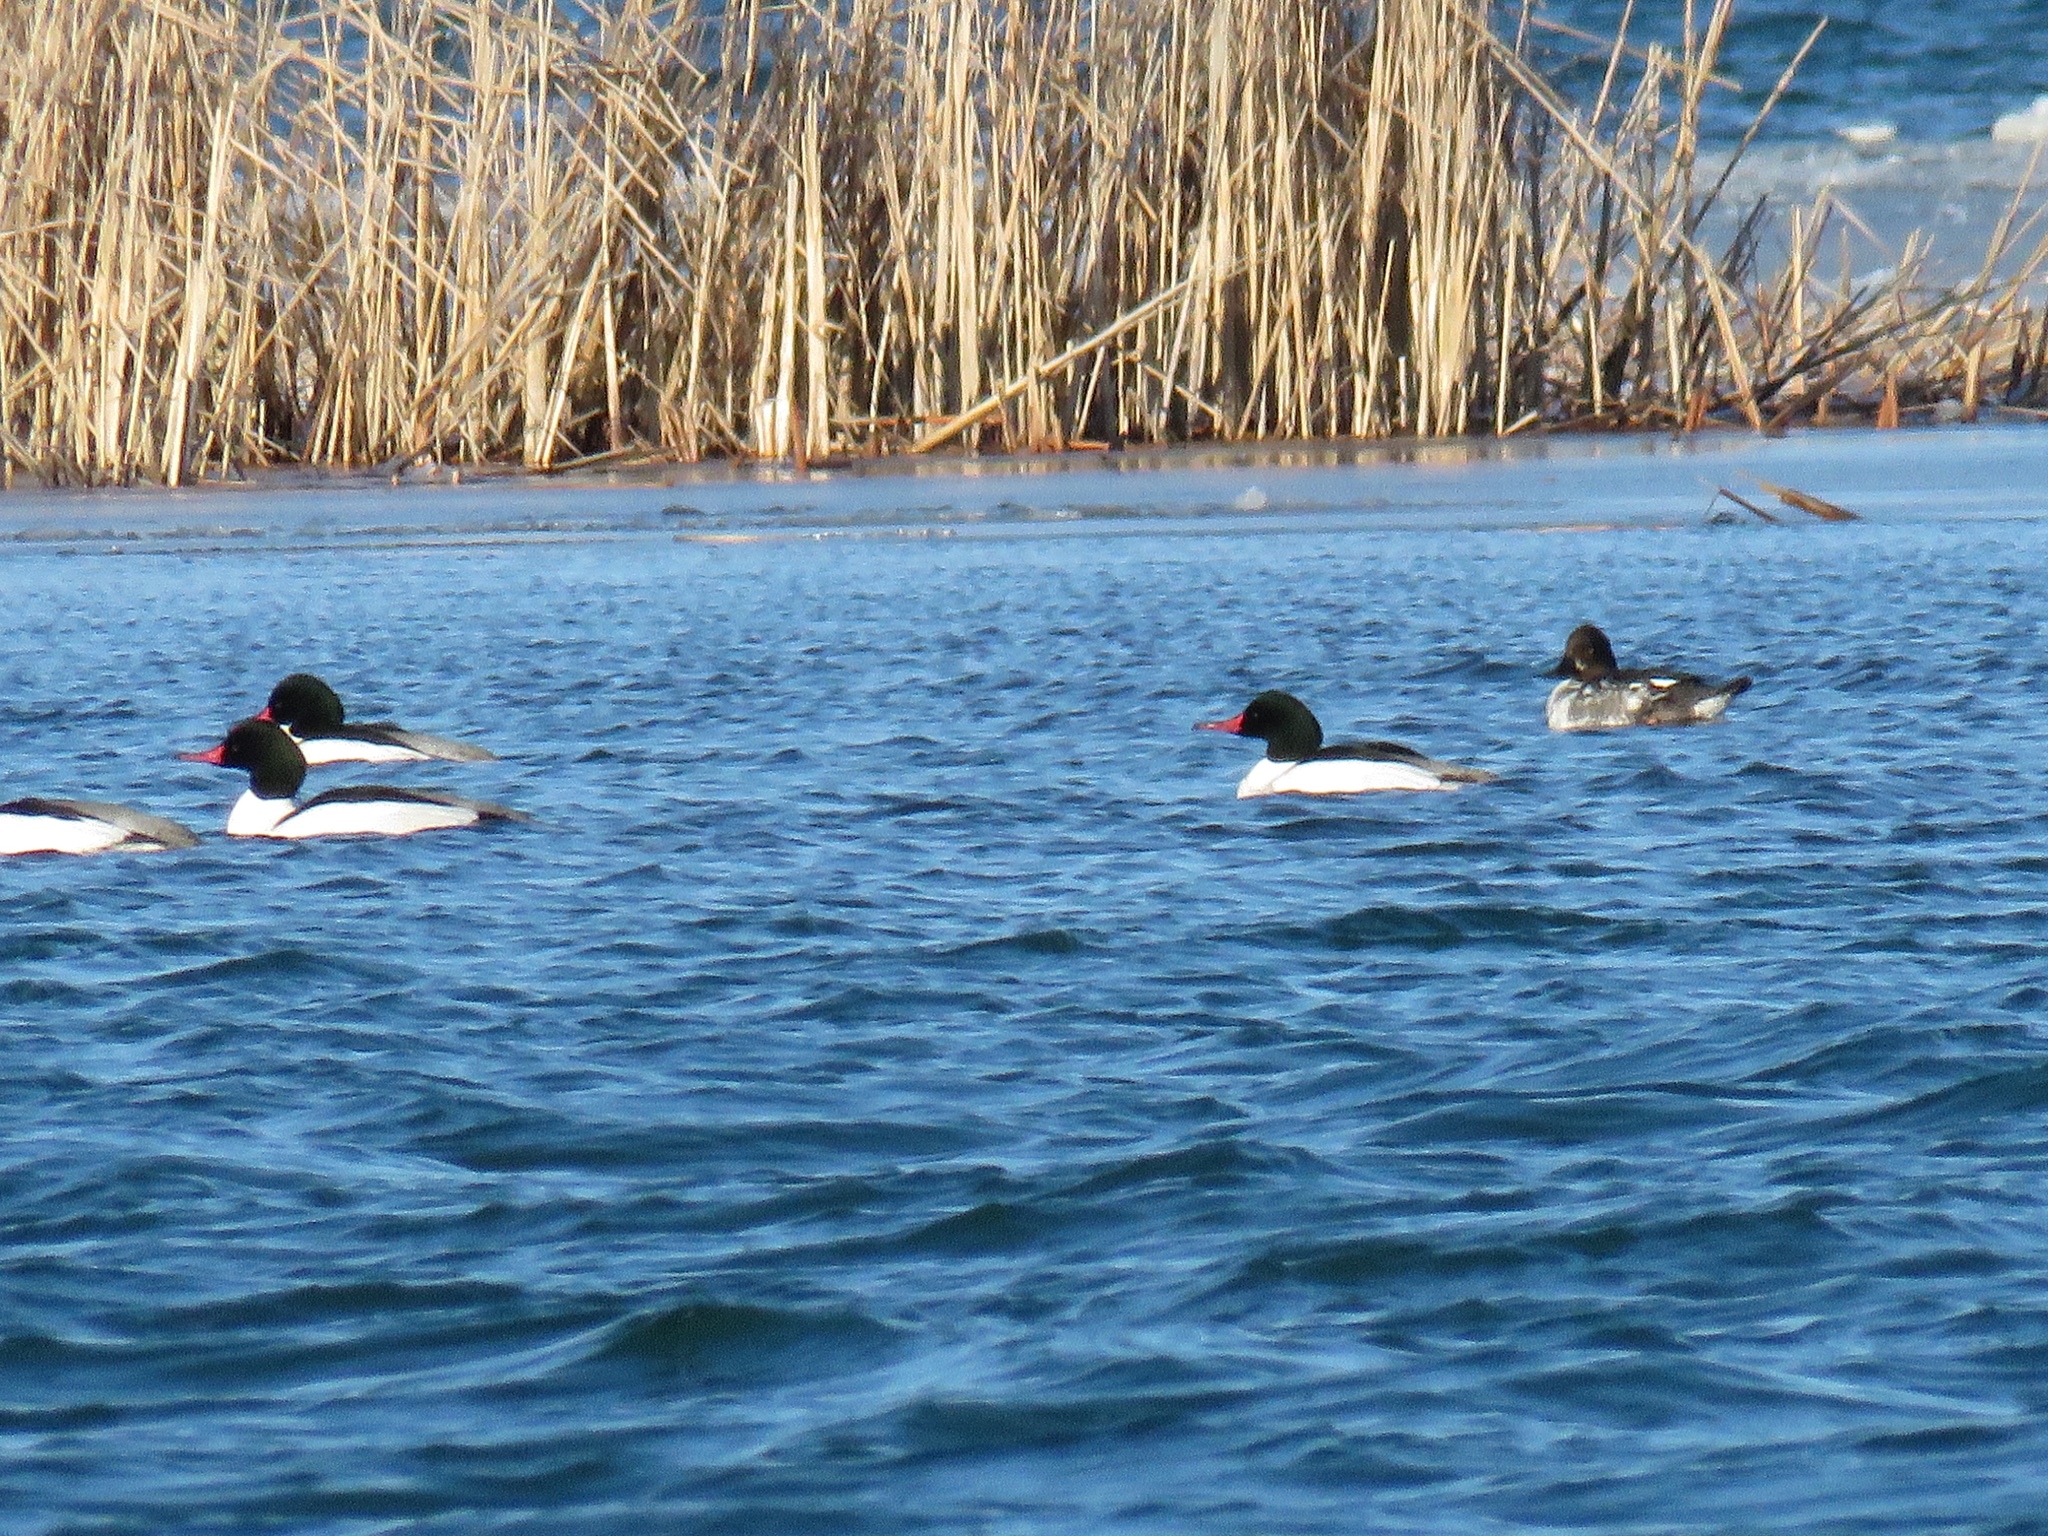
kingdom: Animalia
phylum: Chordata
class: Aves
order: Anseriformes
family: Anatidae
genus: Mergus
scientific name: Mergus merganser
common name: Common merganser
